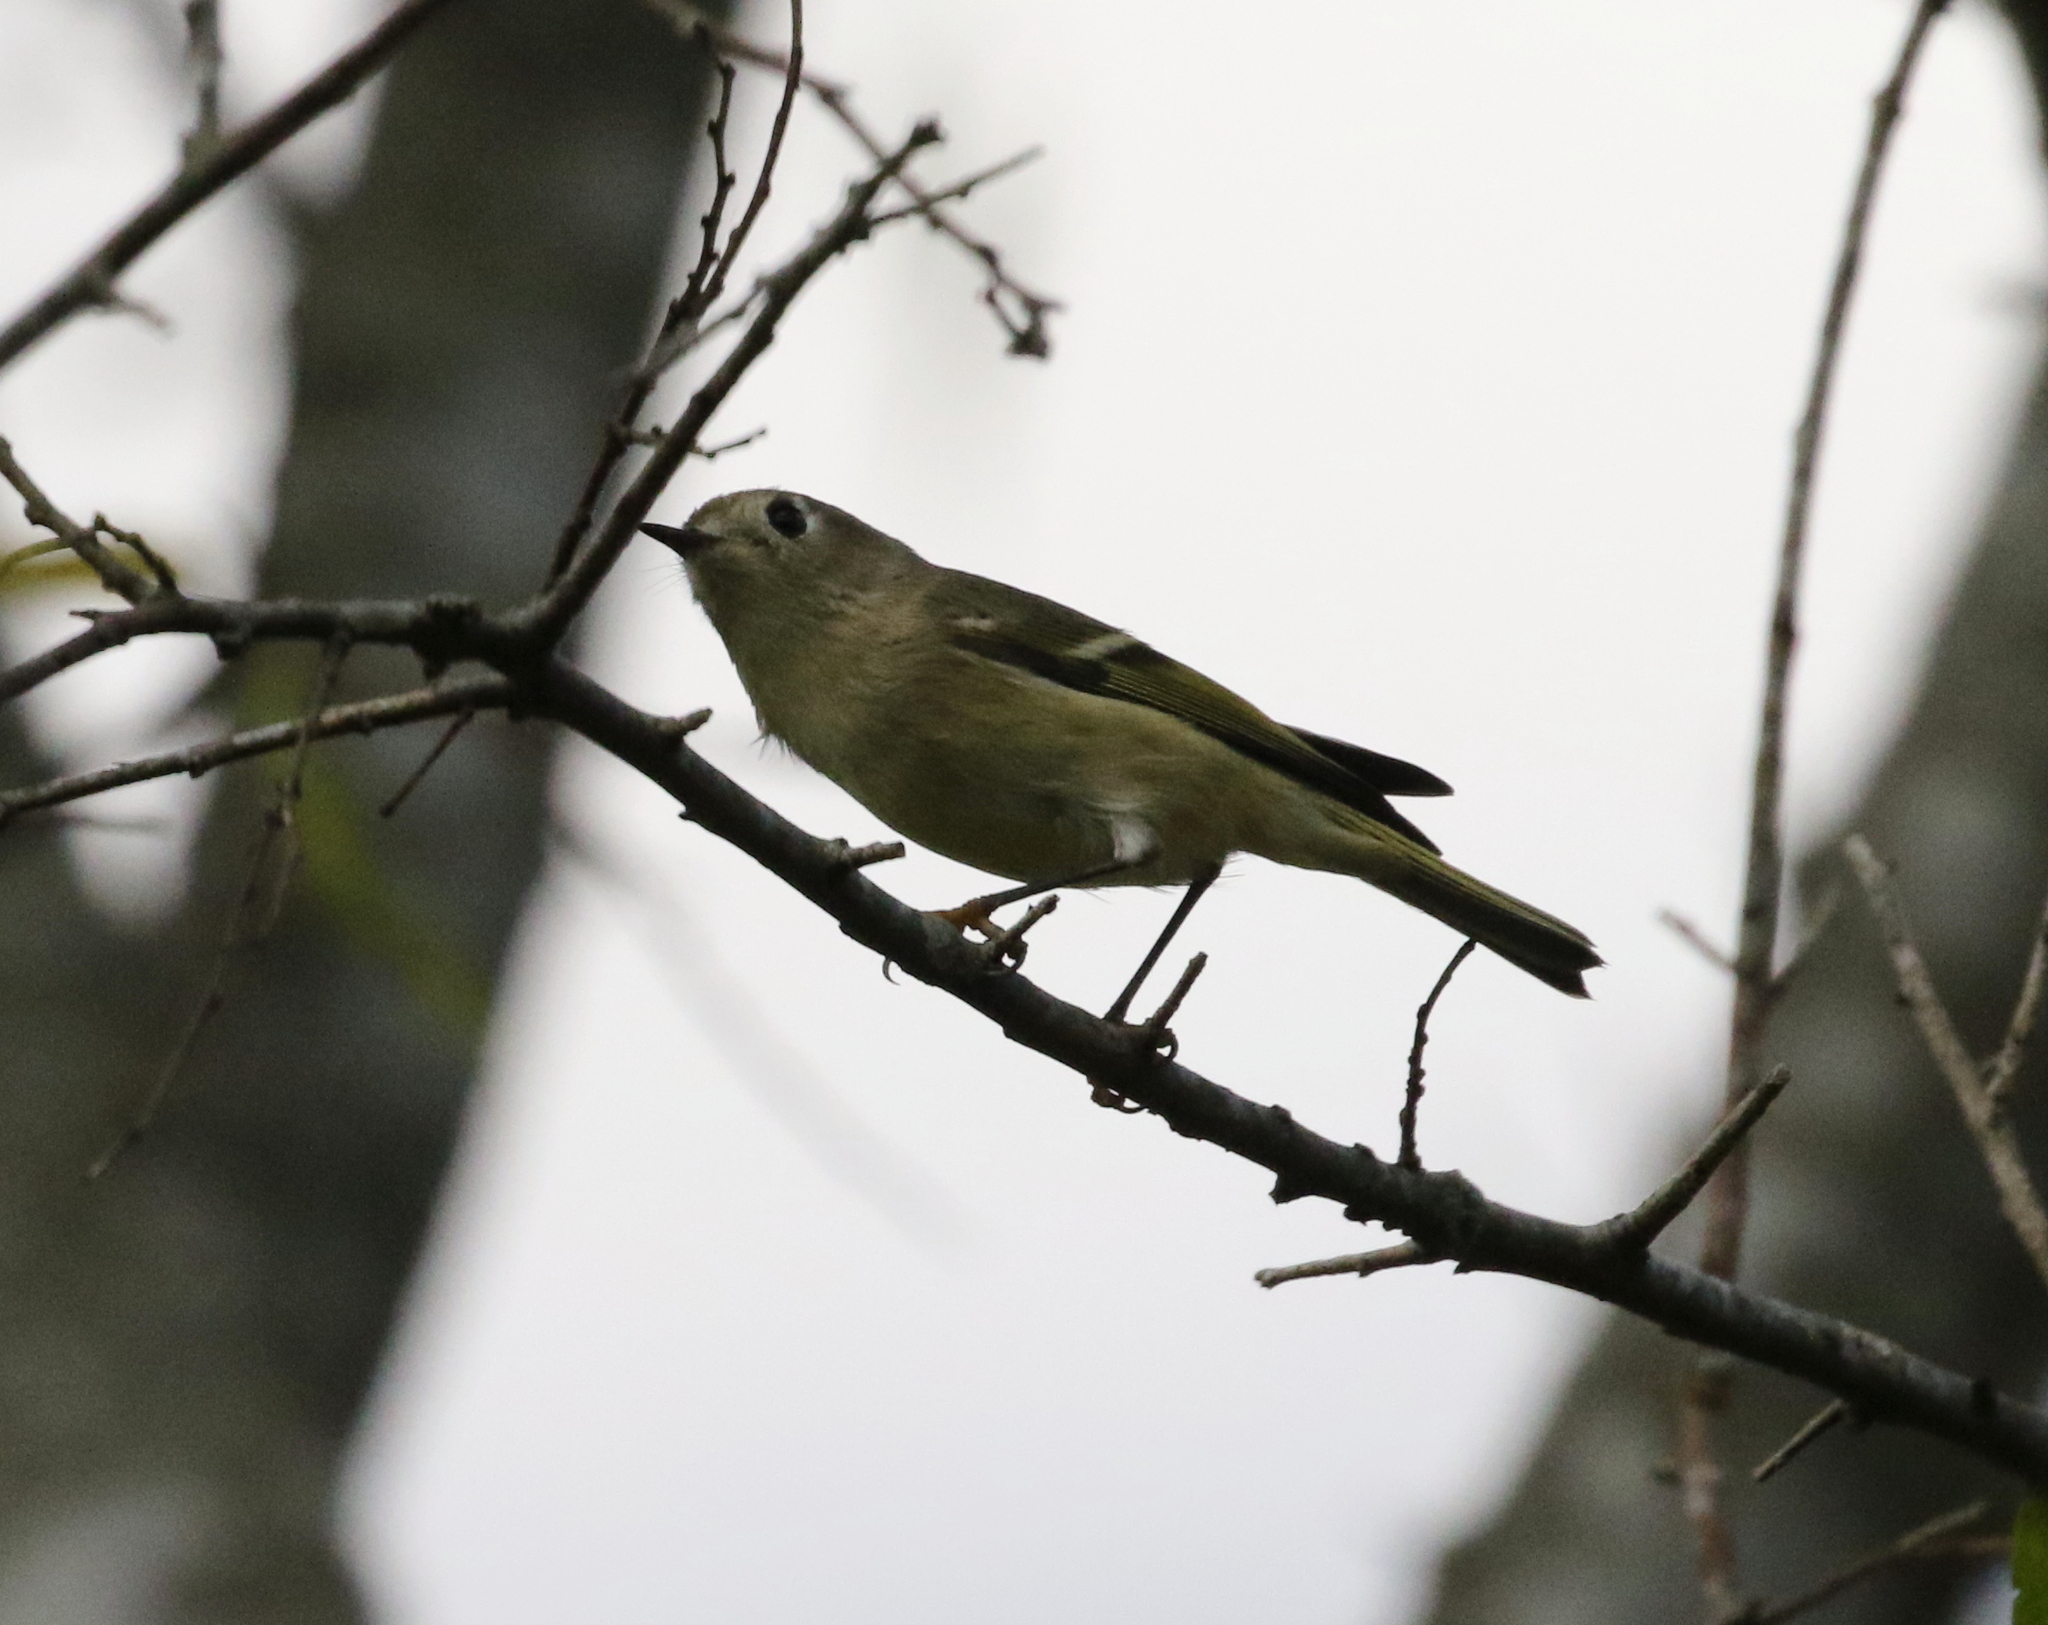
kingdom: Animalia
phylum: Chordata
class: Aves
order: Passeriformes
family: Regulidae
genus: Regulus
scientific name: Regulus calendula
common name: Ruby-crowned kinglet
